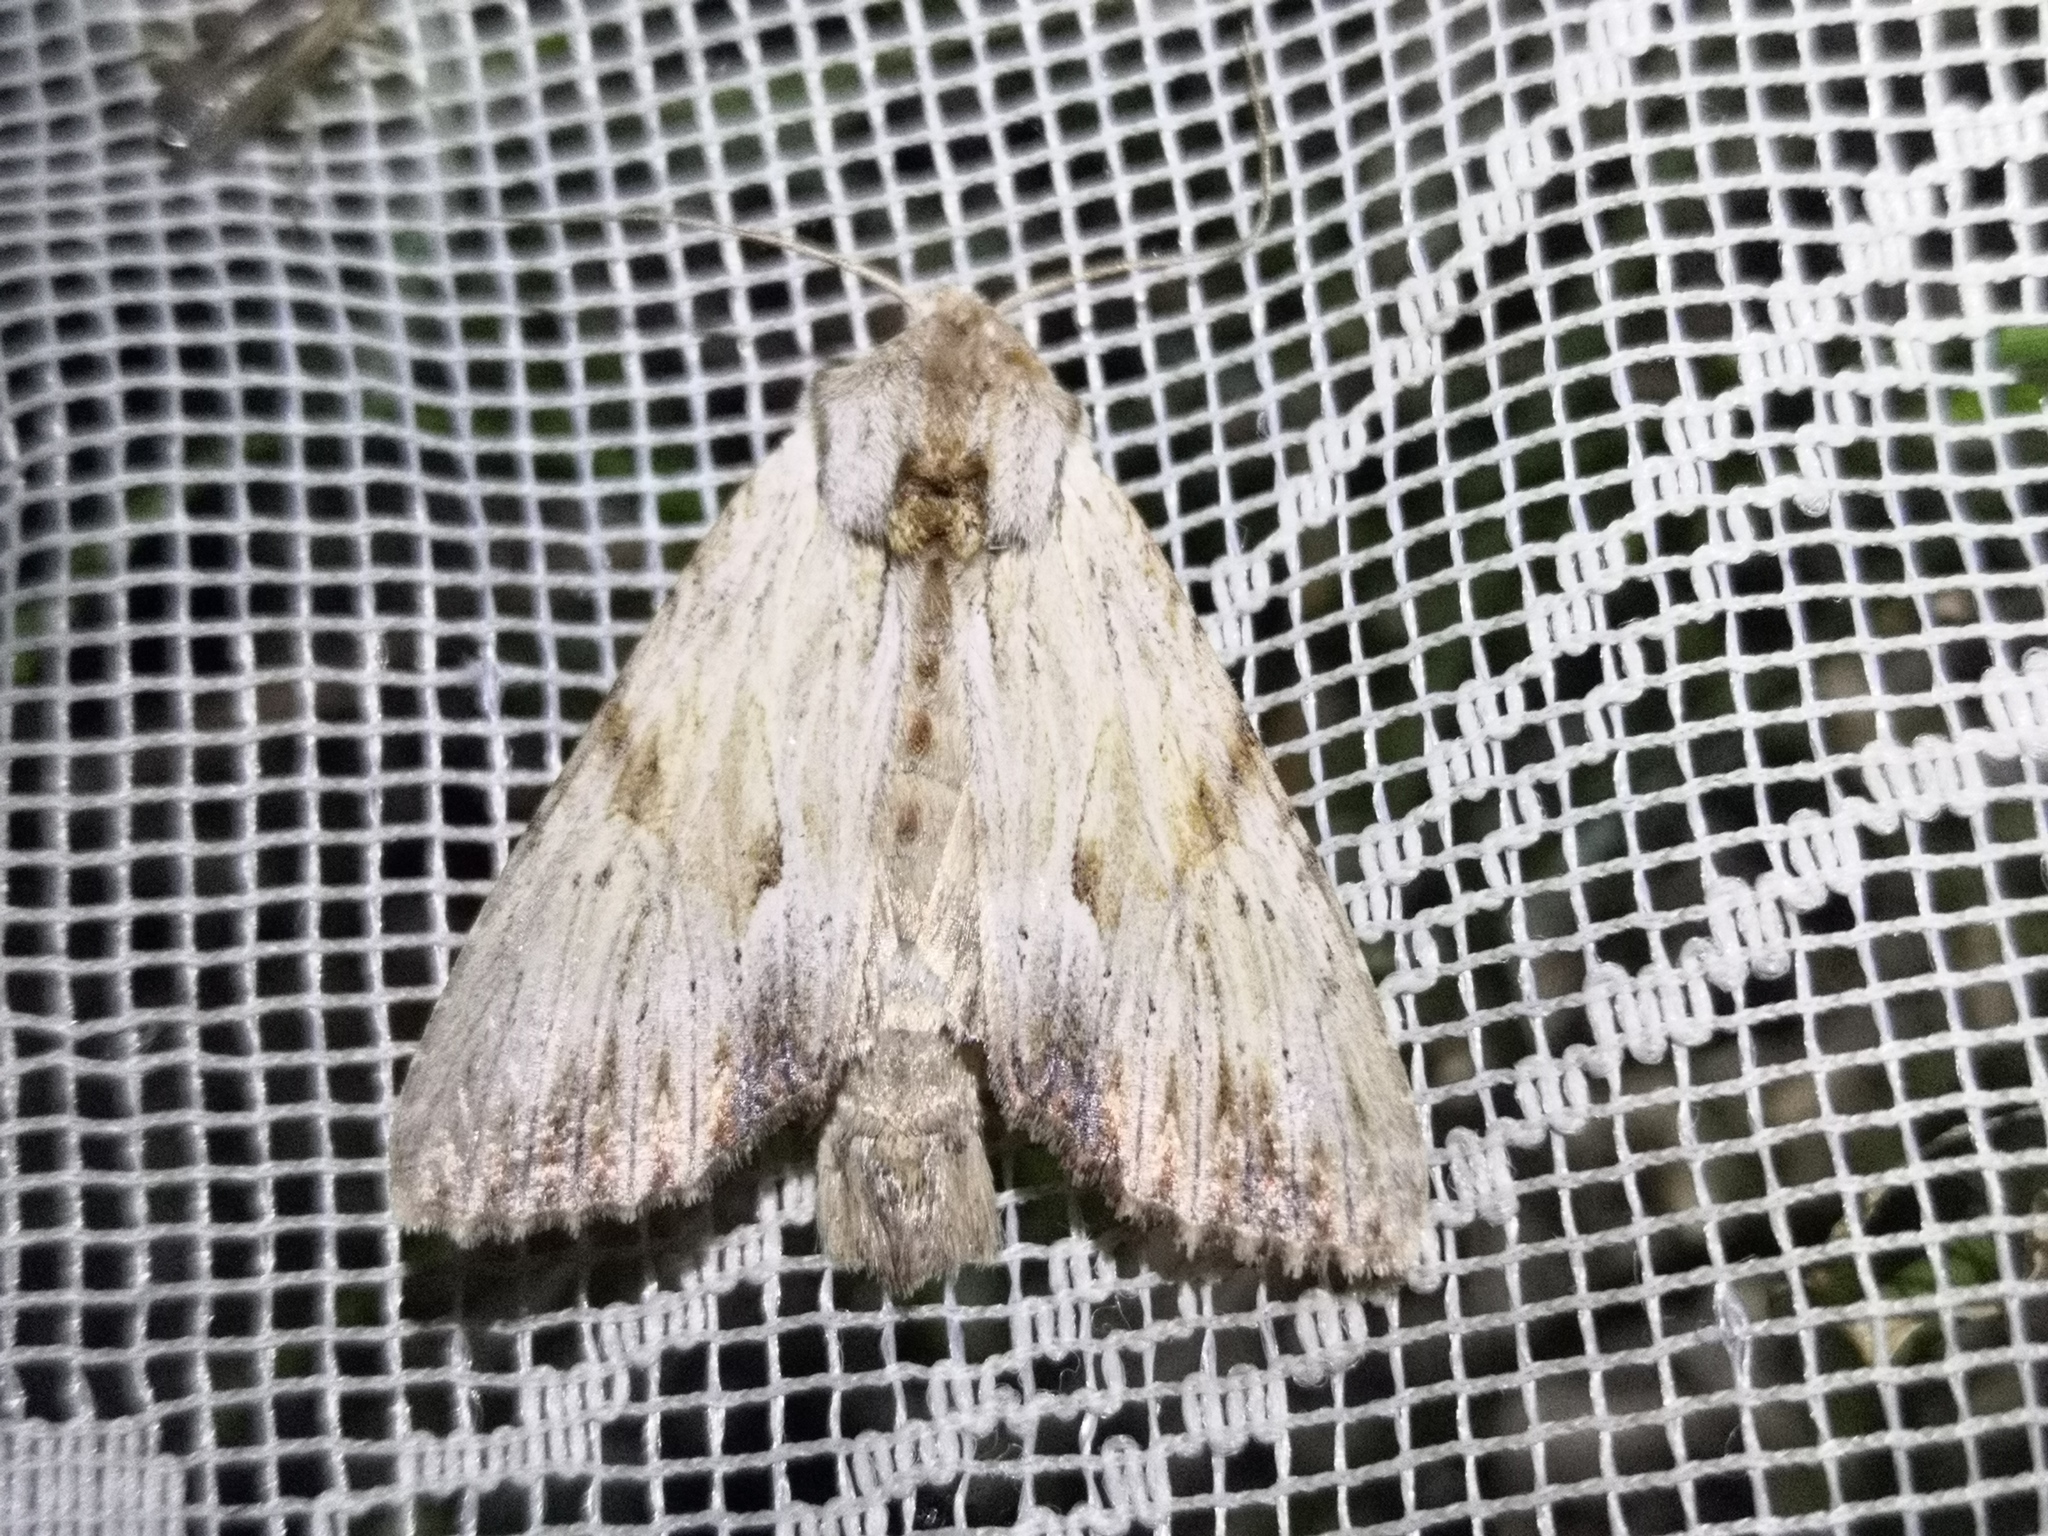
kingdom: Animalia
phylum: Arthropoda
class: Insecta
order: Lepidoptera
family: Noctuidae
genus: Apamea
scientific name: Apamea lithoxylaea
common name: Light arches
